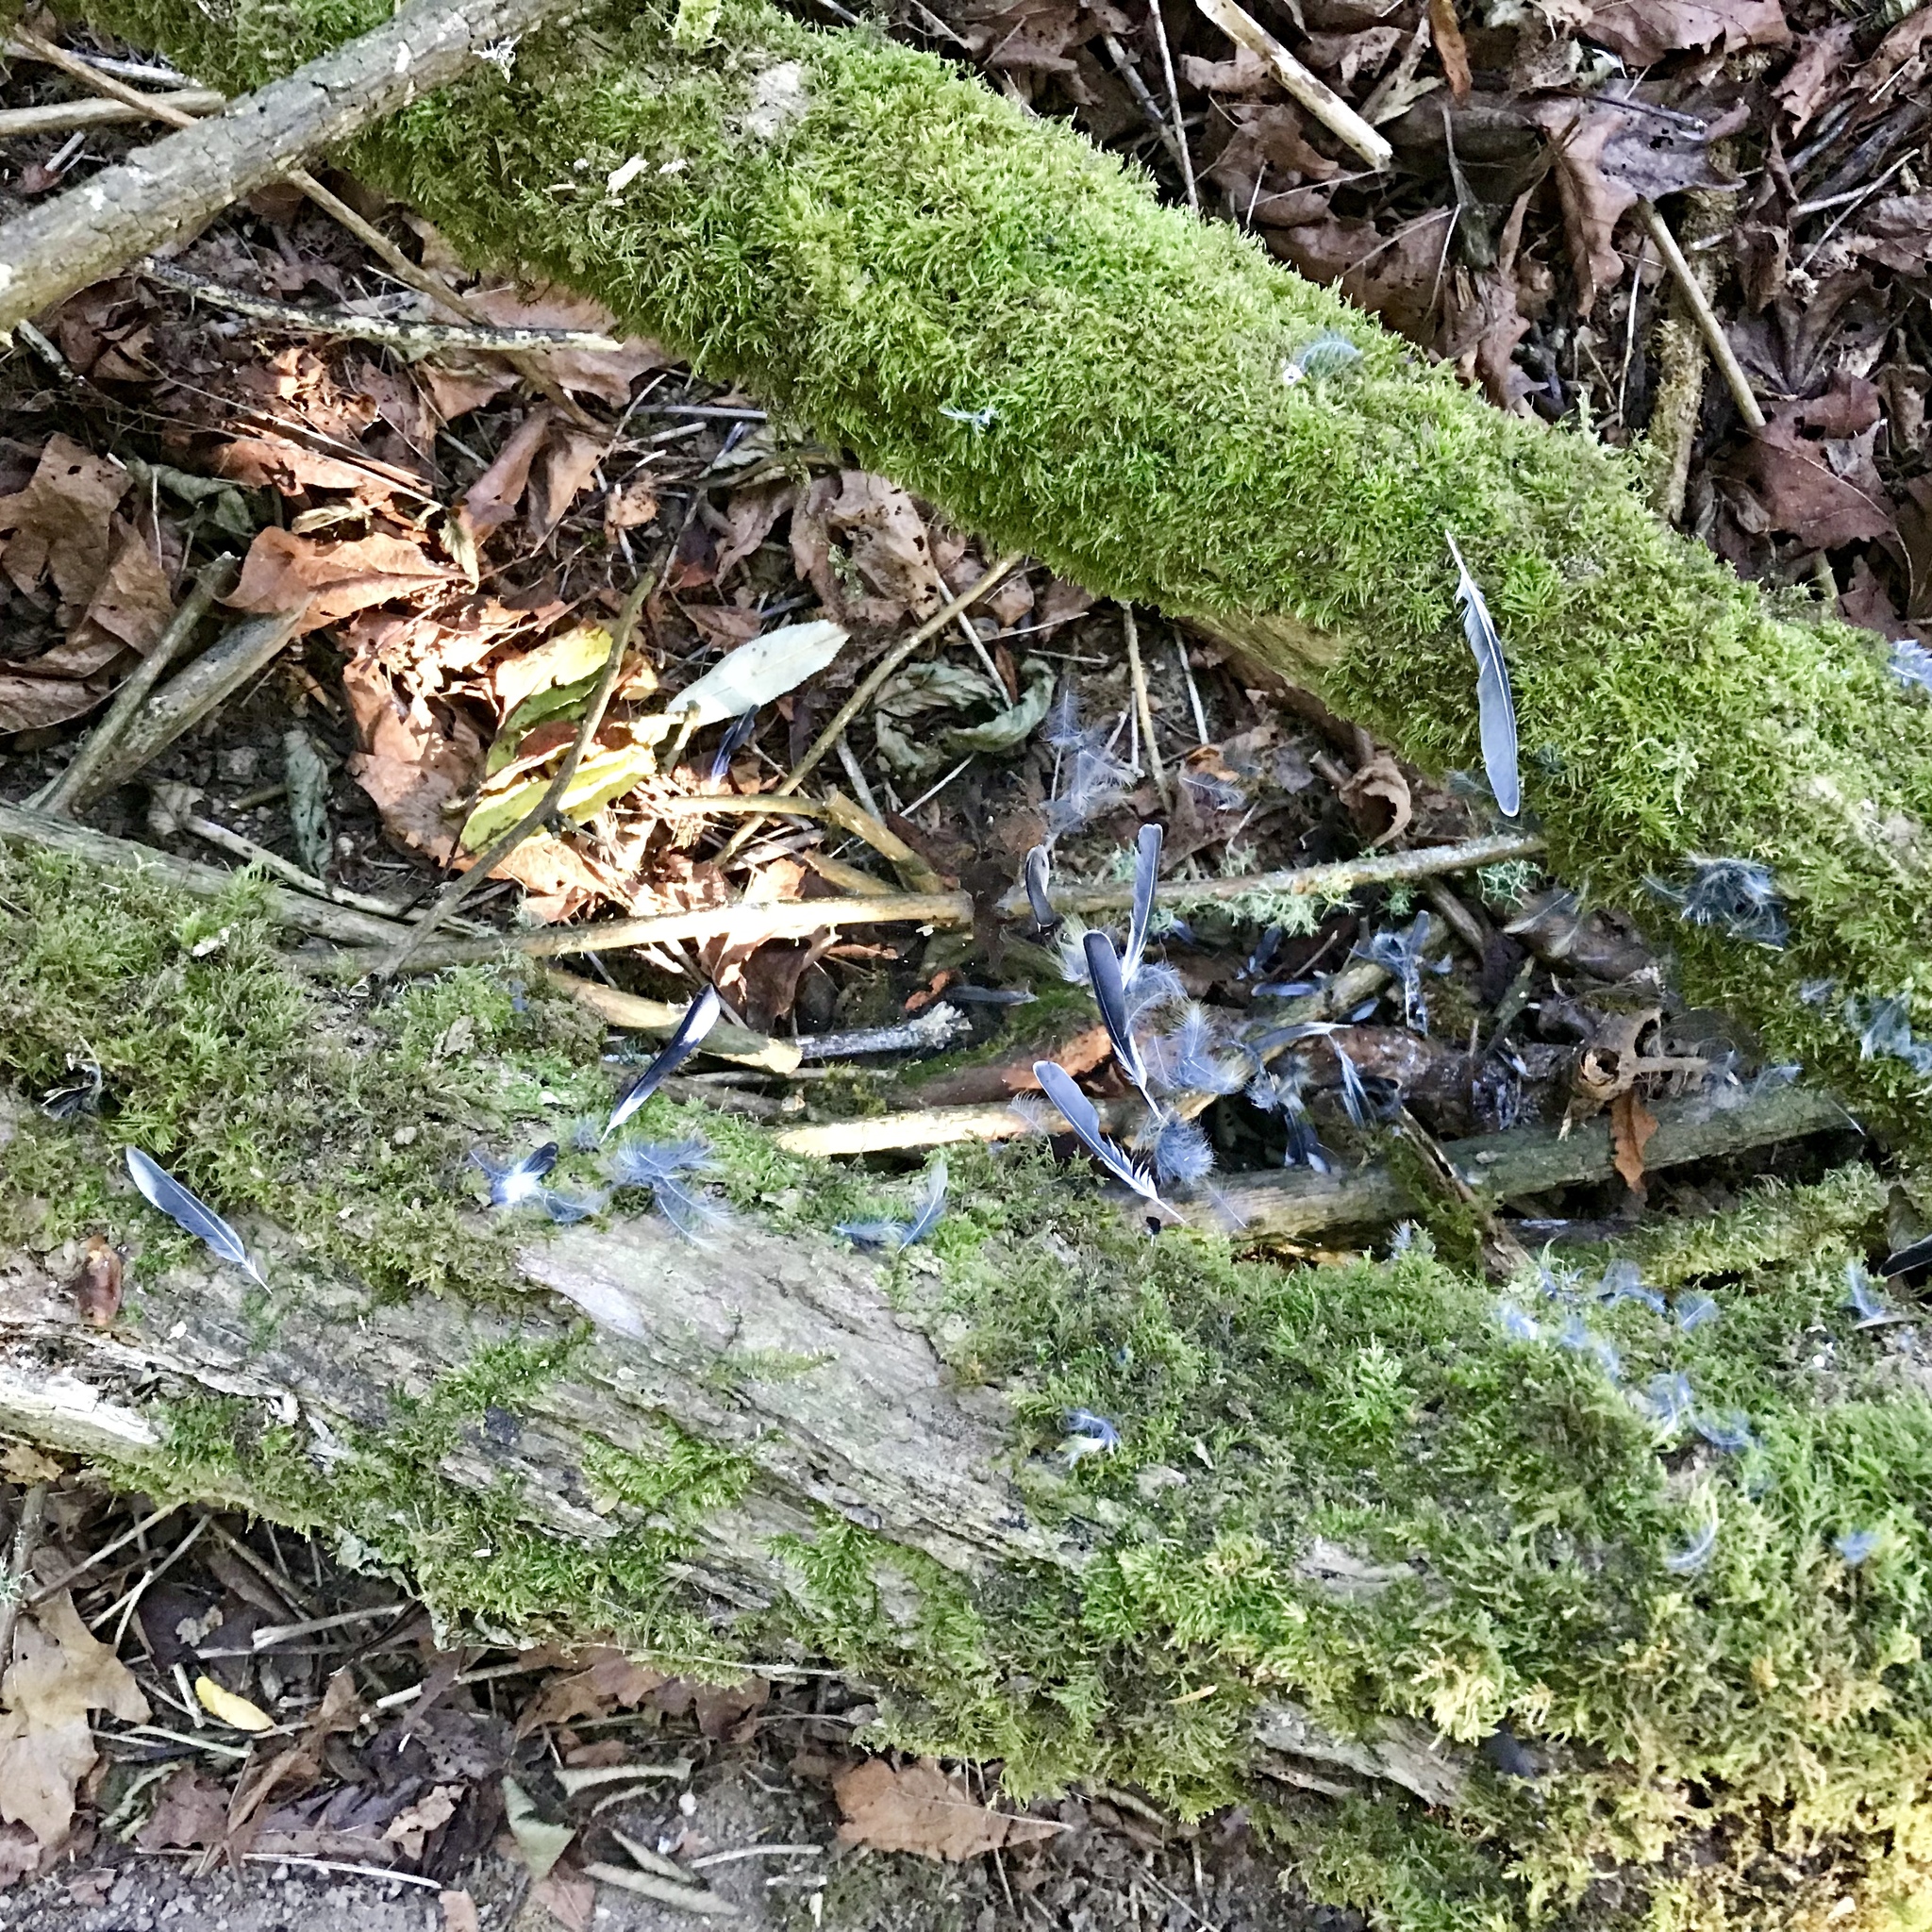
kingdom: Animalia
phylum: Chordata
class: Aves
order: Passeriformes
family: Fringillidae
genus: Spinus
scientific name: Spinus tristis
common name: American goldfinch
